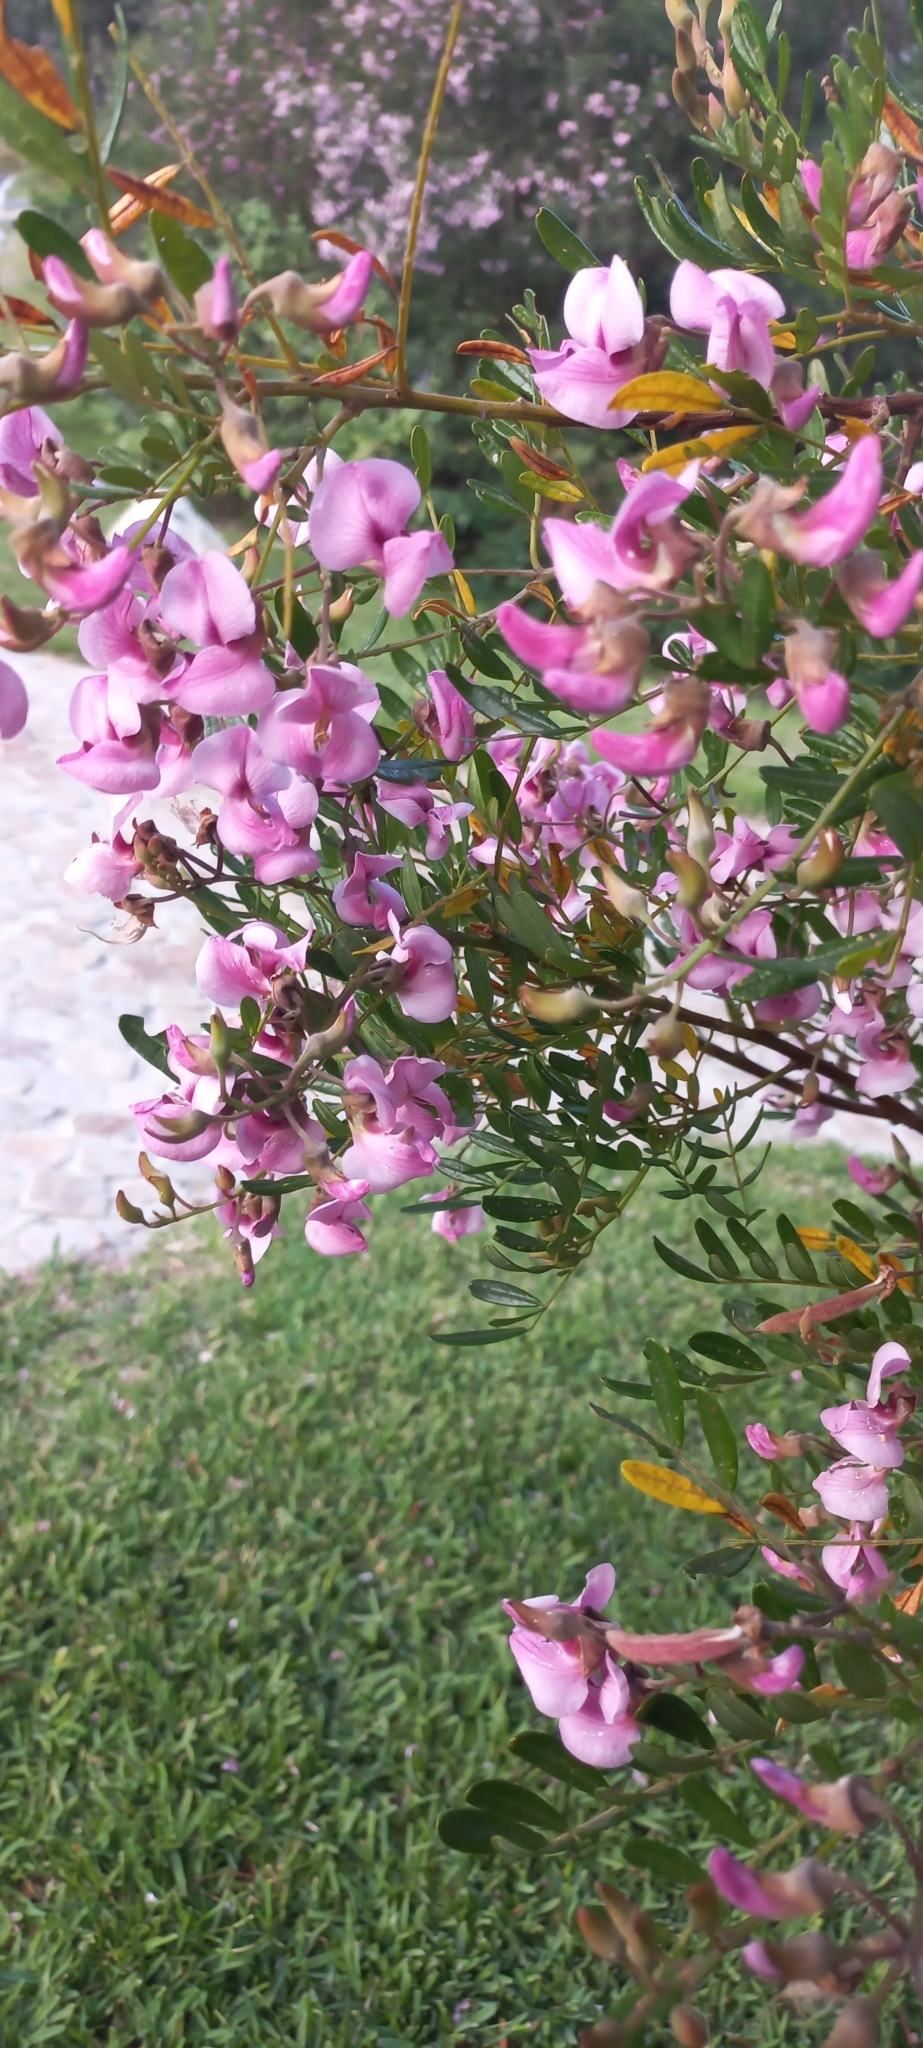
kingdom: Plantae
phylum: Tracheophyta
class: Magnoliopsida
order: Fabales
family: Fabaceae
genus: Virgilia
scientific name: Virgilia divaricata
